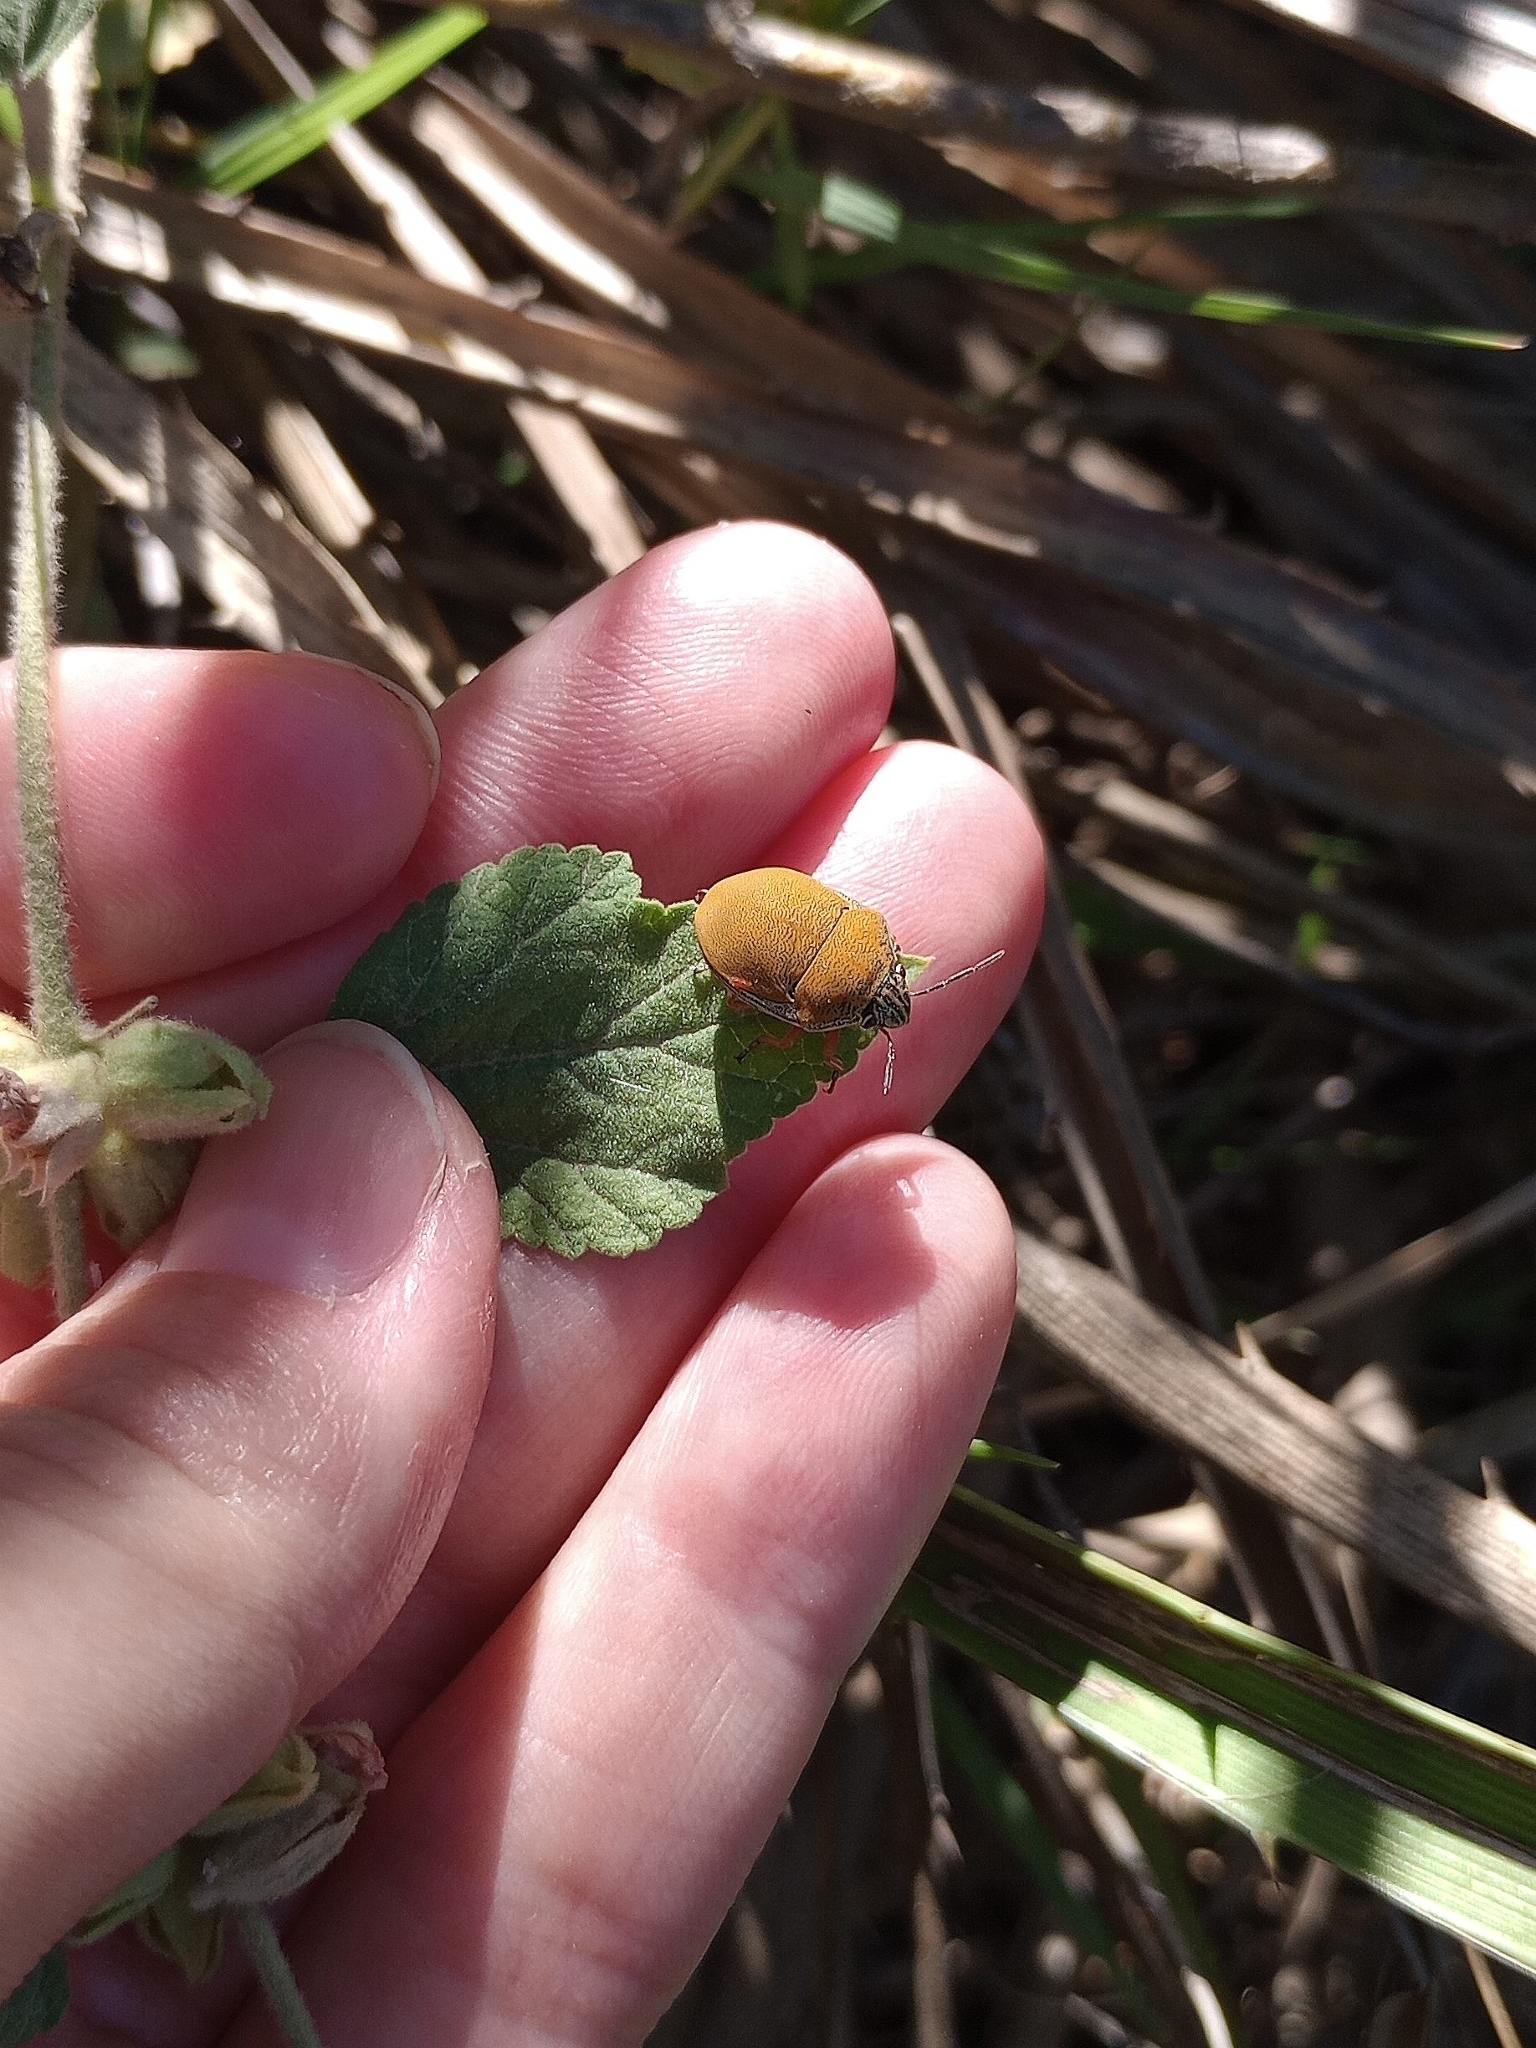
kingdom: Animalia
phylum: Arthropoda
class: Insecta
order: Hemiptera
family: Scutelleridae
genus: Orsilochides
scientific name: Orsilochides
